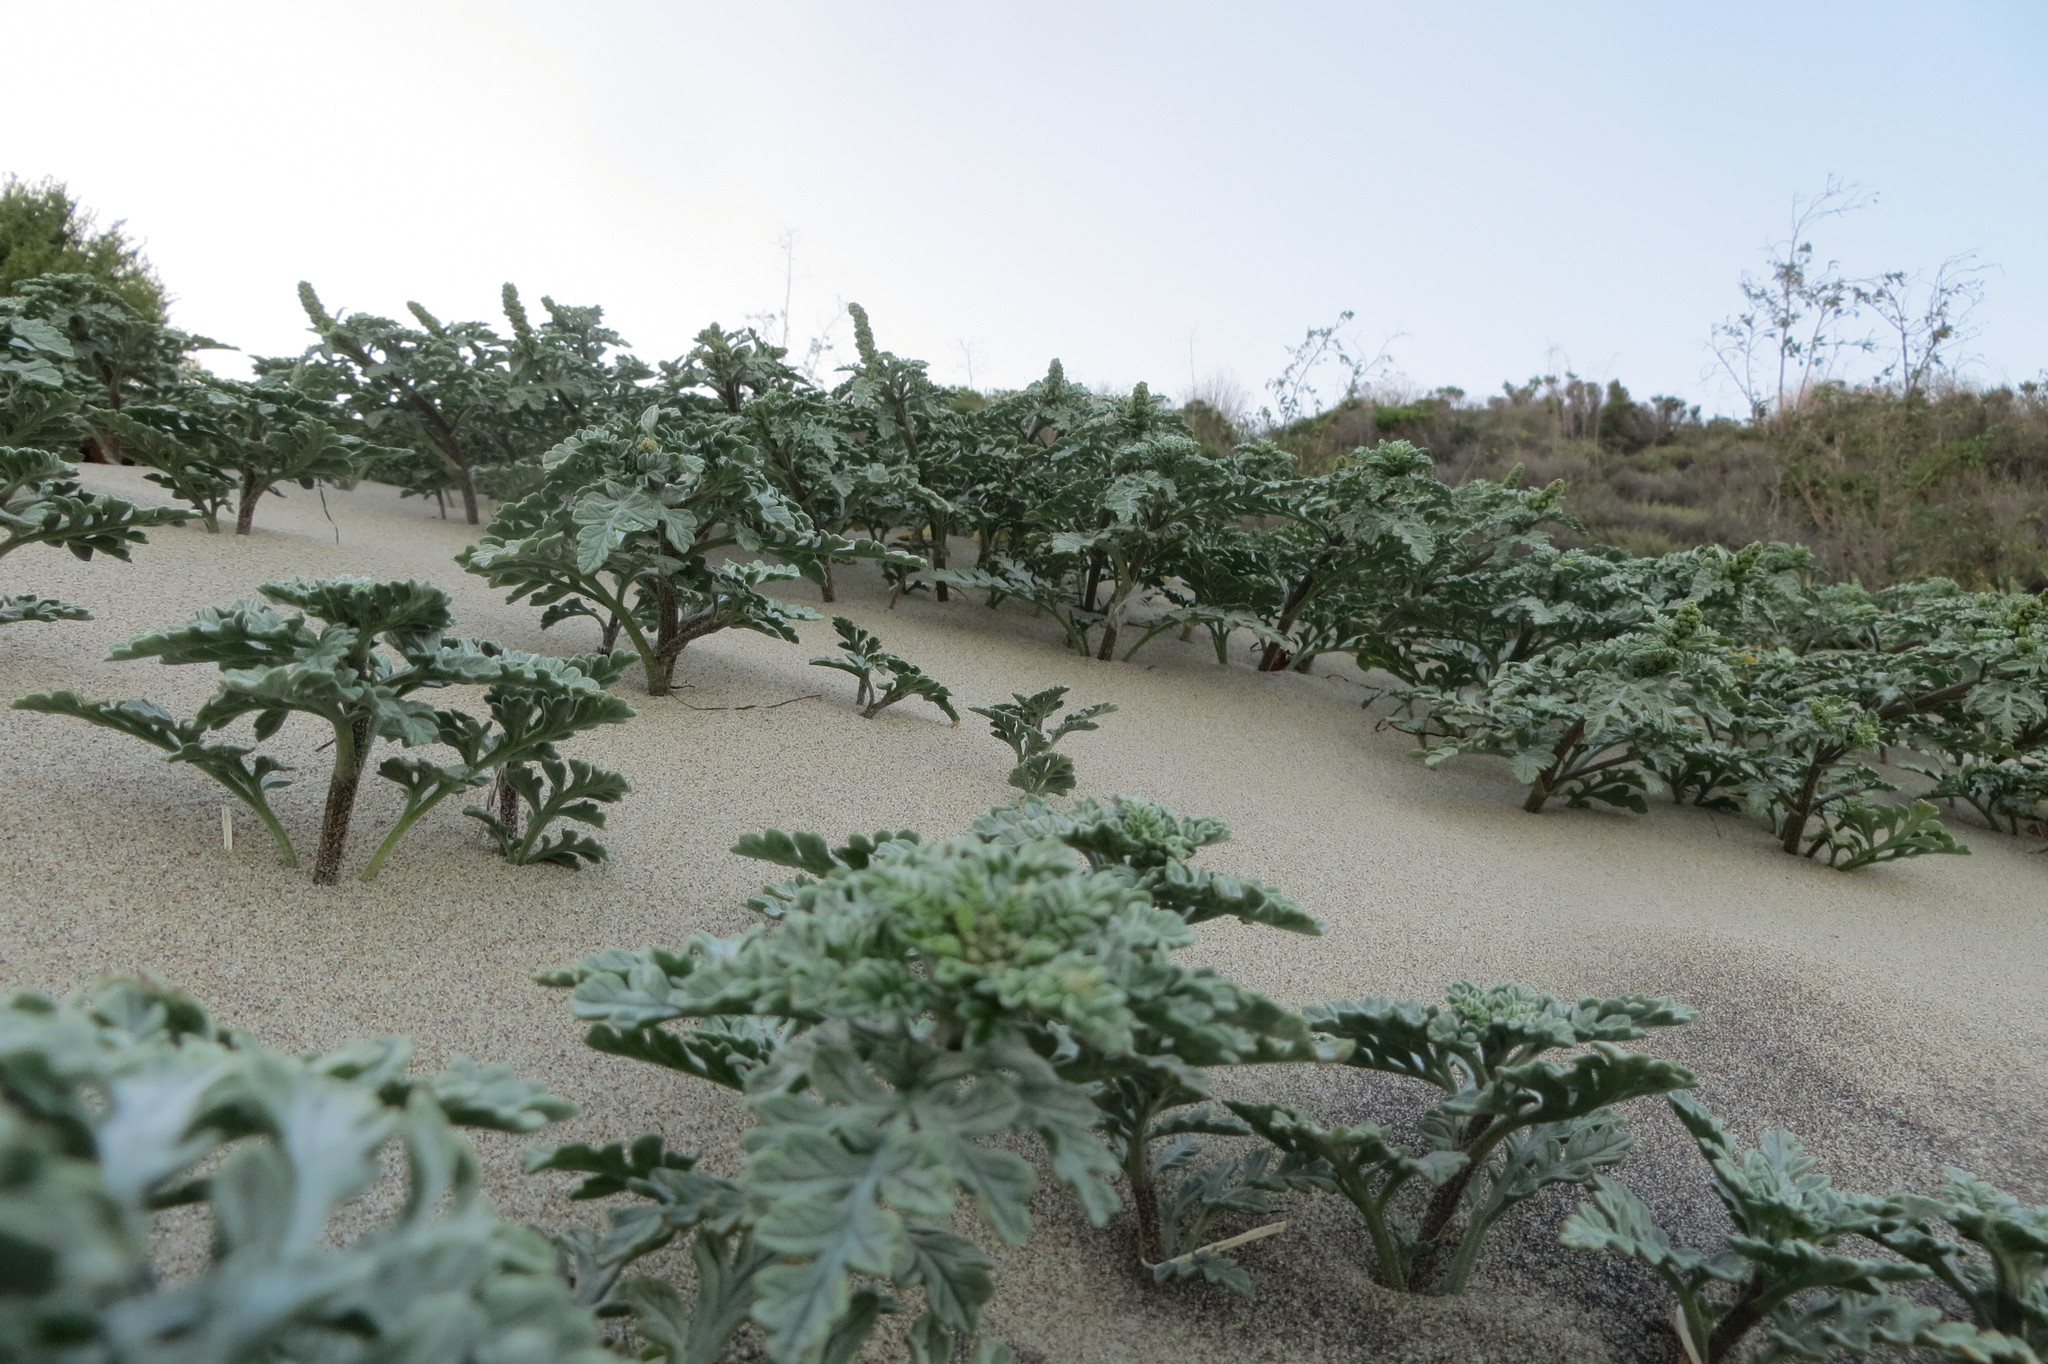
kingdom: Plantae
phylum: Tracheophyta
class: Magnoliopsida
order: Asterales
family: Asteraceae
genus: Ambrosia
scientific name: Ambrosia chamissonis
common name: Beachbur
